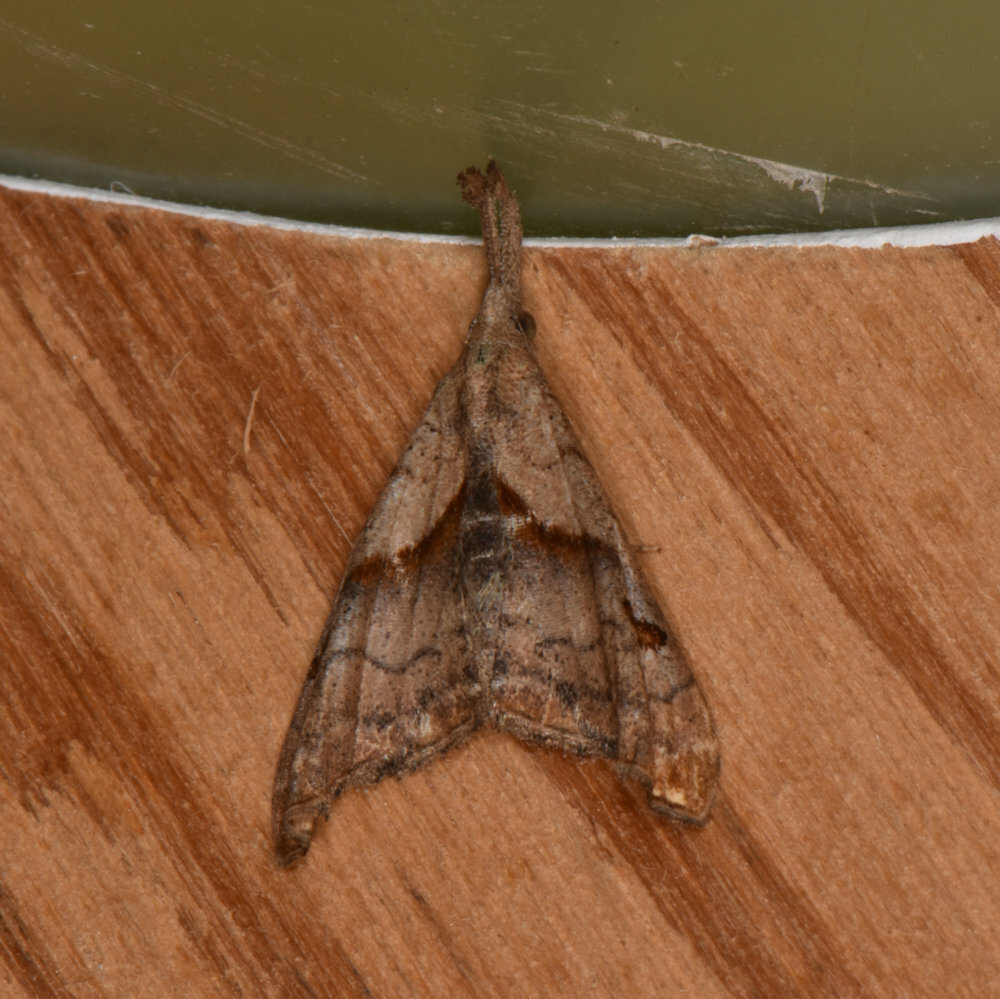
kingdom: Animalia
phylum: Arthropoda
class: Insecta
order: Lepidoptera
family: Erebidae
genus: Palthis
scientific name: Palthis angulalis
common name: Dark-spotted palthis moth
